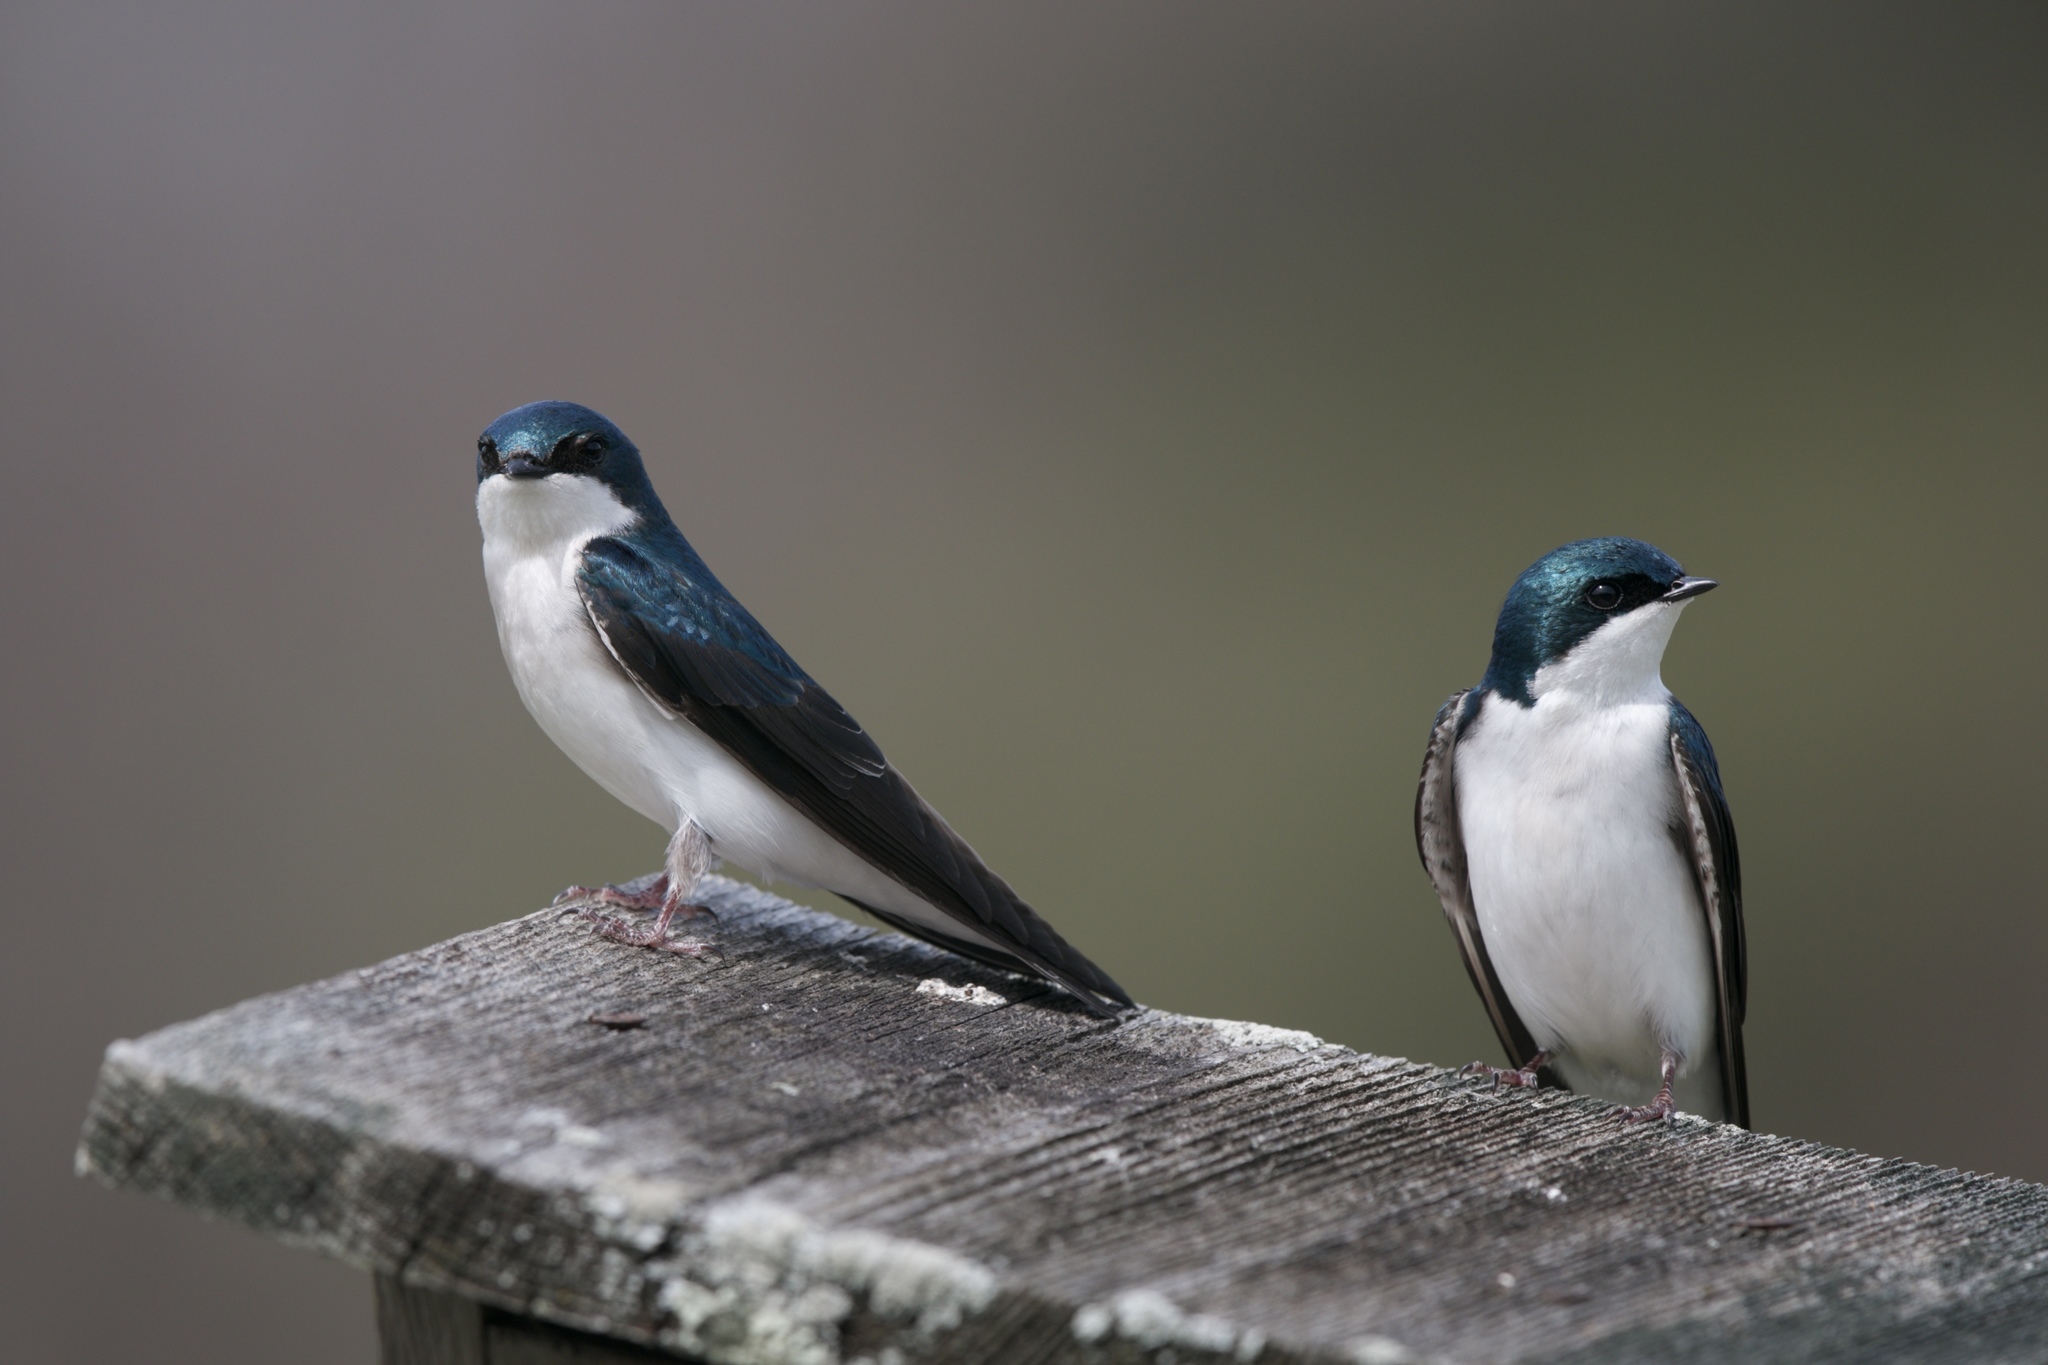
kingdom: Animalia
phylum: Chordata
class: Aves
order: Passeriformes
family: Hirundinidae
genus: Tachycineta
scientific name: Tachycineta bicolor
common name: Tree swallow
